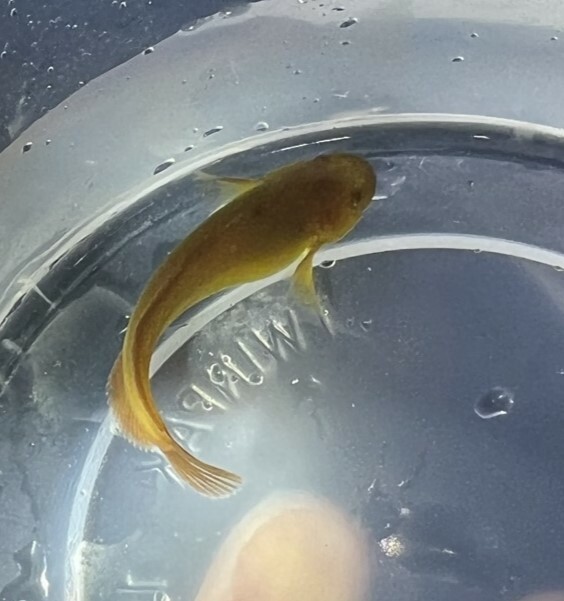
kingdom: Animalia
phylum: Chordata
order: Scorpaeniformes
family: Liparidae
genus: Liparis
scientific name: Liparis florae
